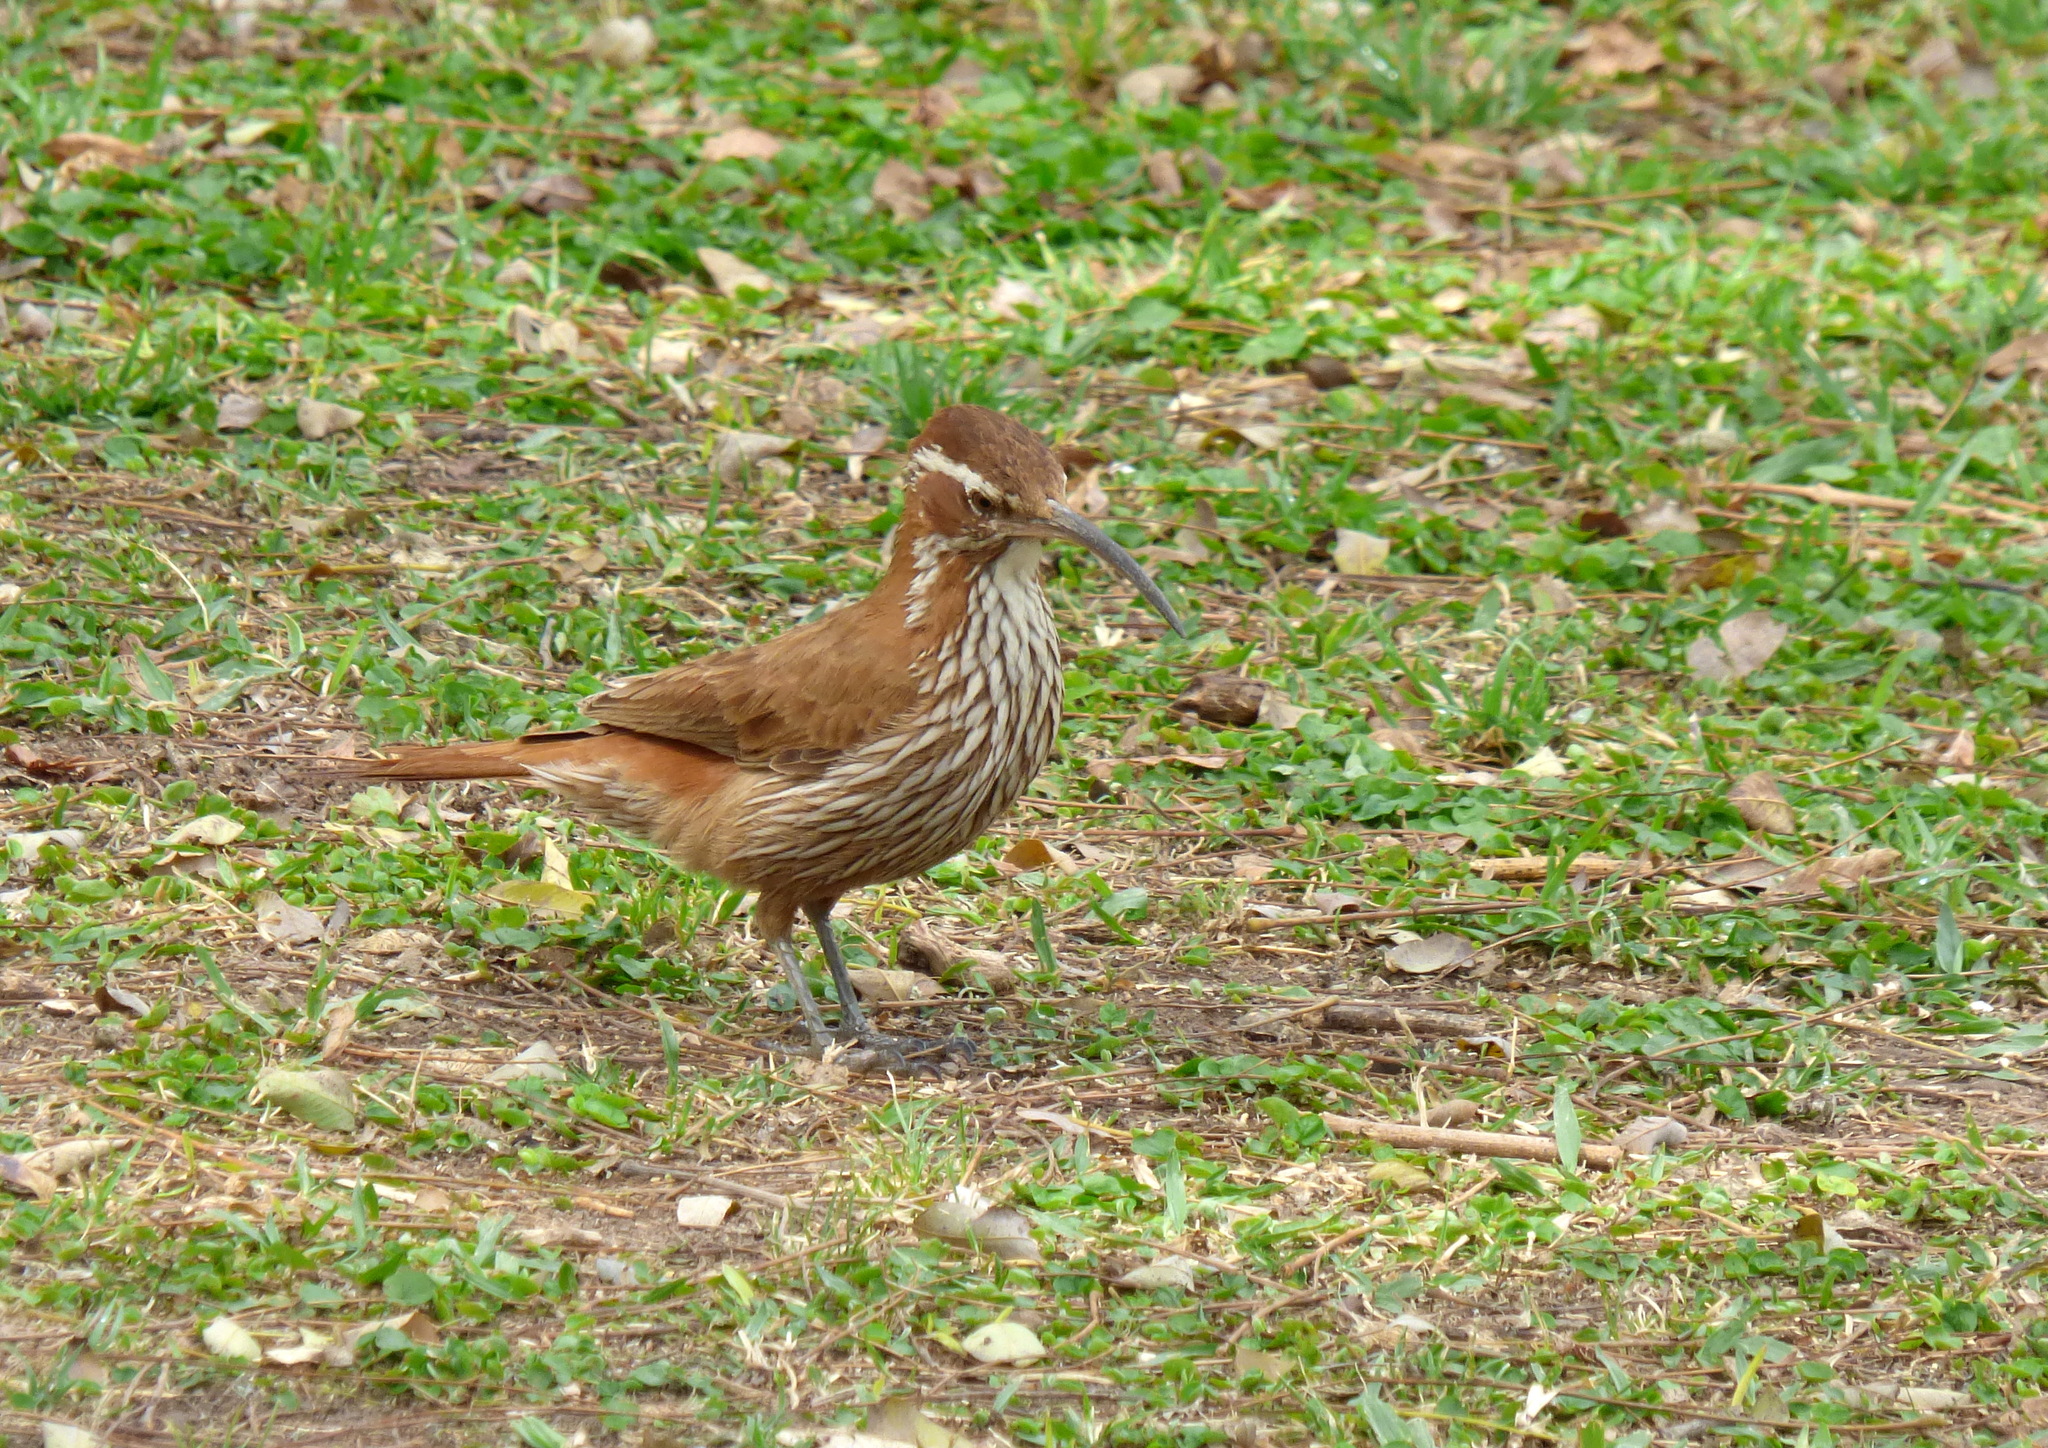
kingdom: Animalia
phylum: Chordata
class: Aves
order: Passeriformes
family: Furnariidae
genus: Drymornis
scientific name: Drymornis bridgesii
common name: Scimitar-billed woodcreeper
